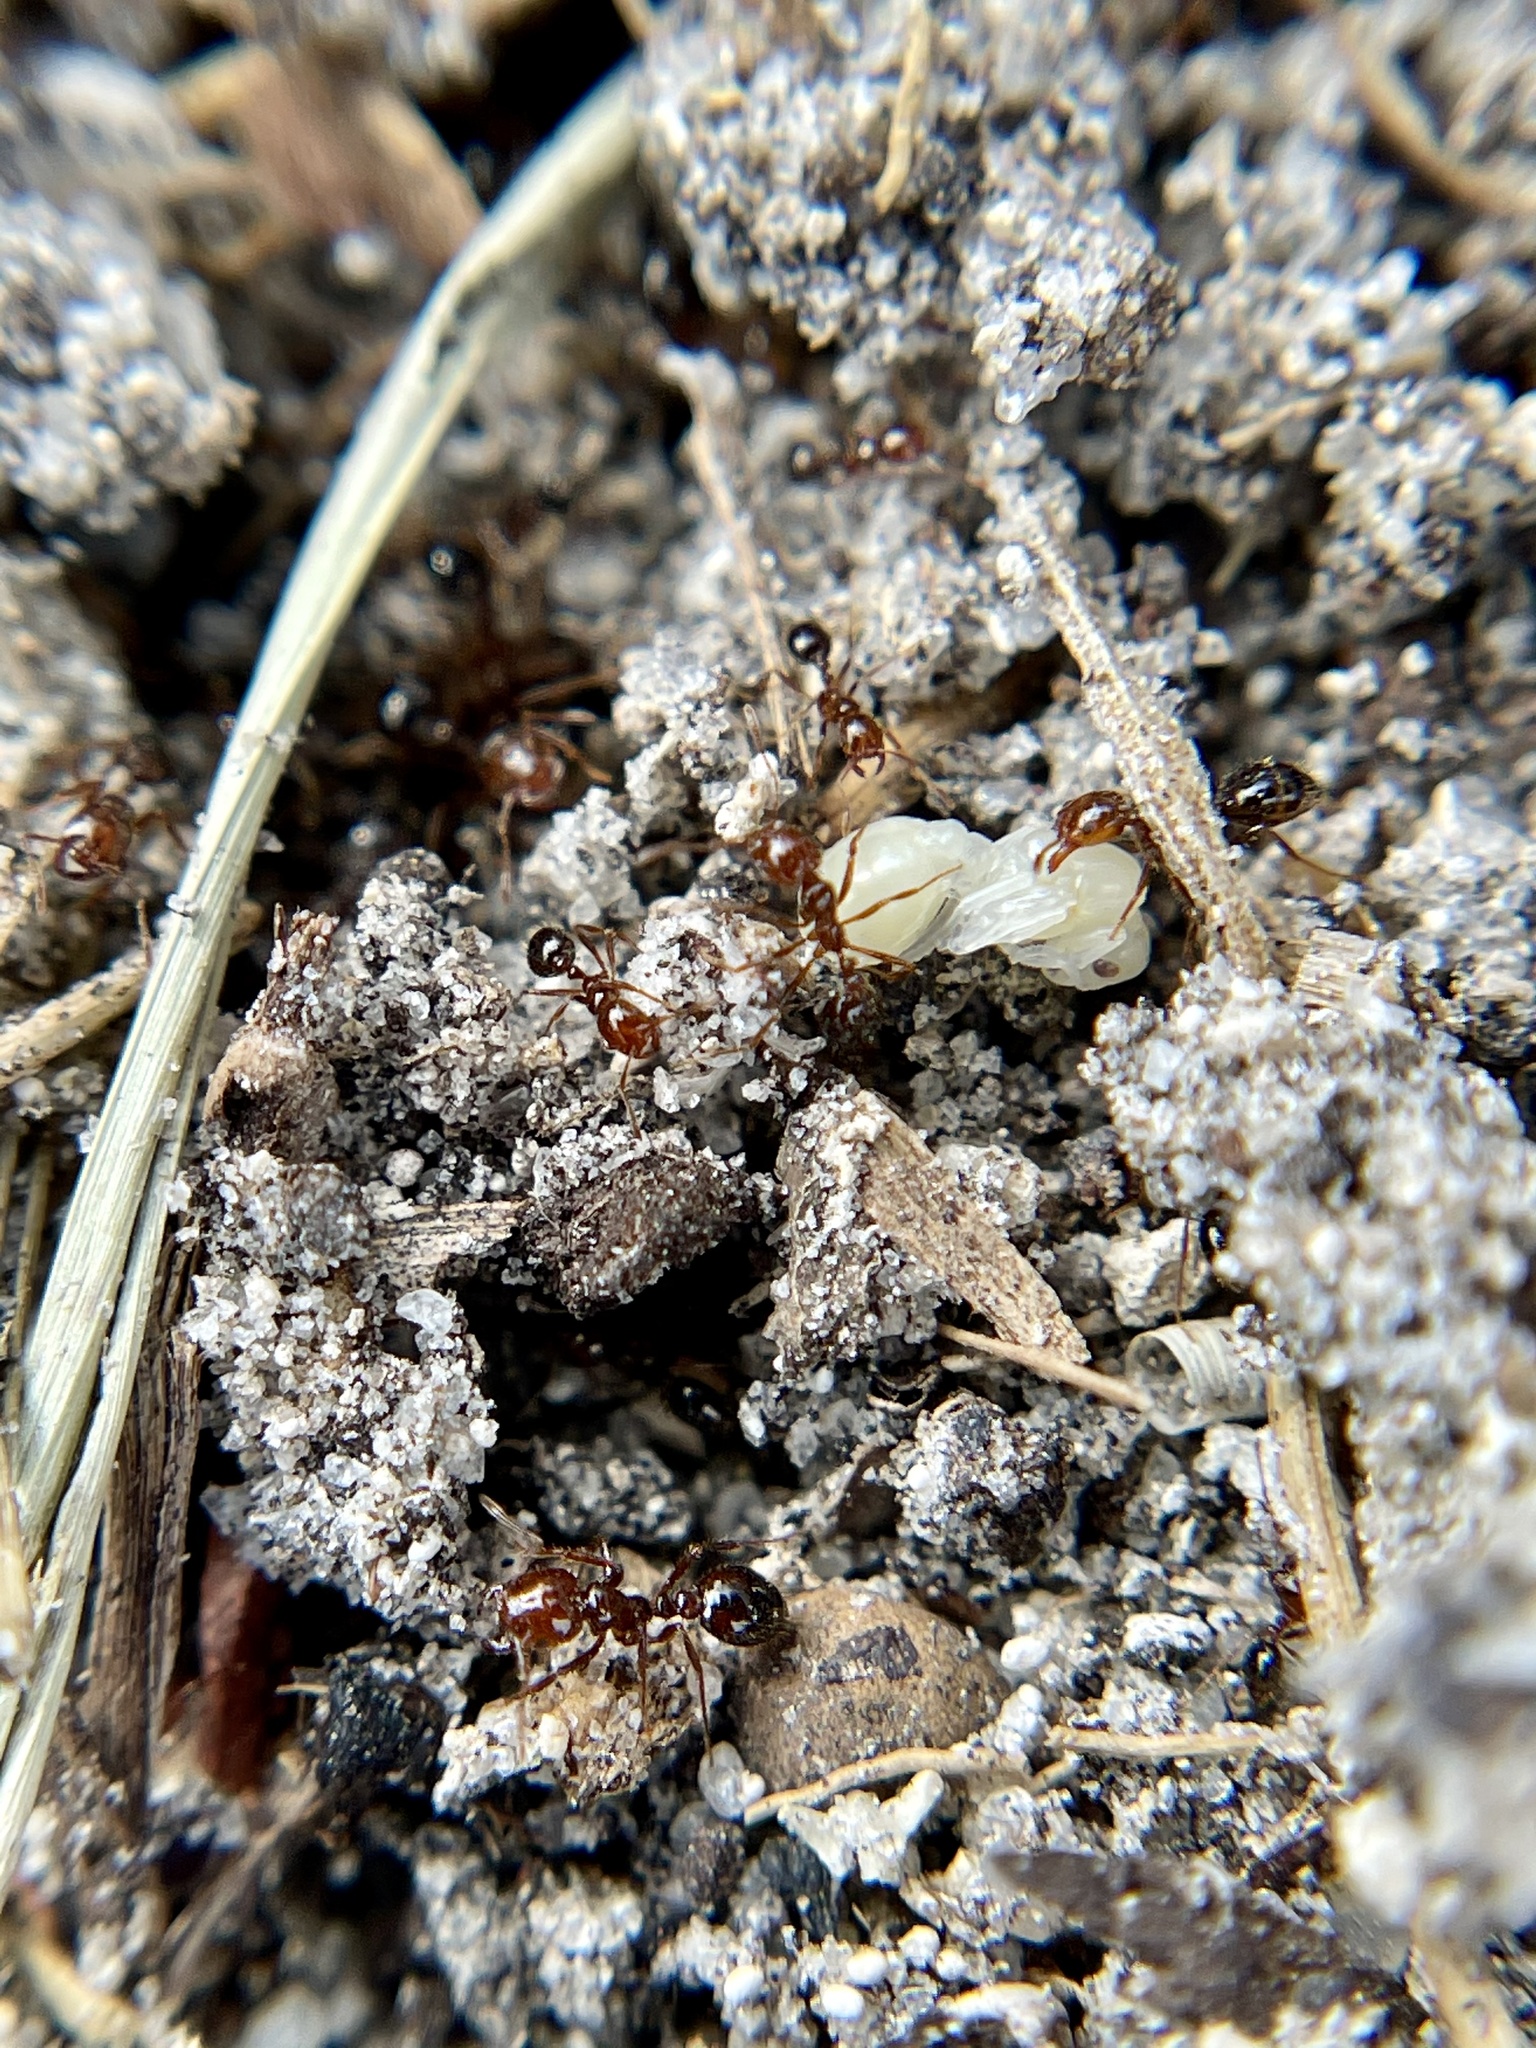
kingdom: Animalia
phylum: Arthropoda
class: Insecta
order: Hymenoptera
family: Formicidae
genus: Solenopsis
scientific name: Solenopsis invicta
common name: Red imported fire ant
